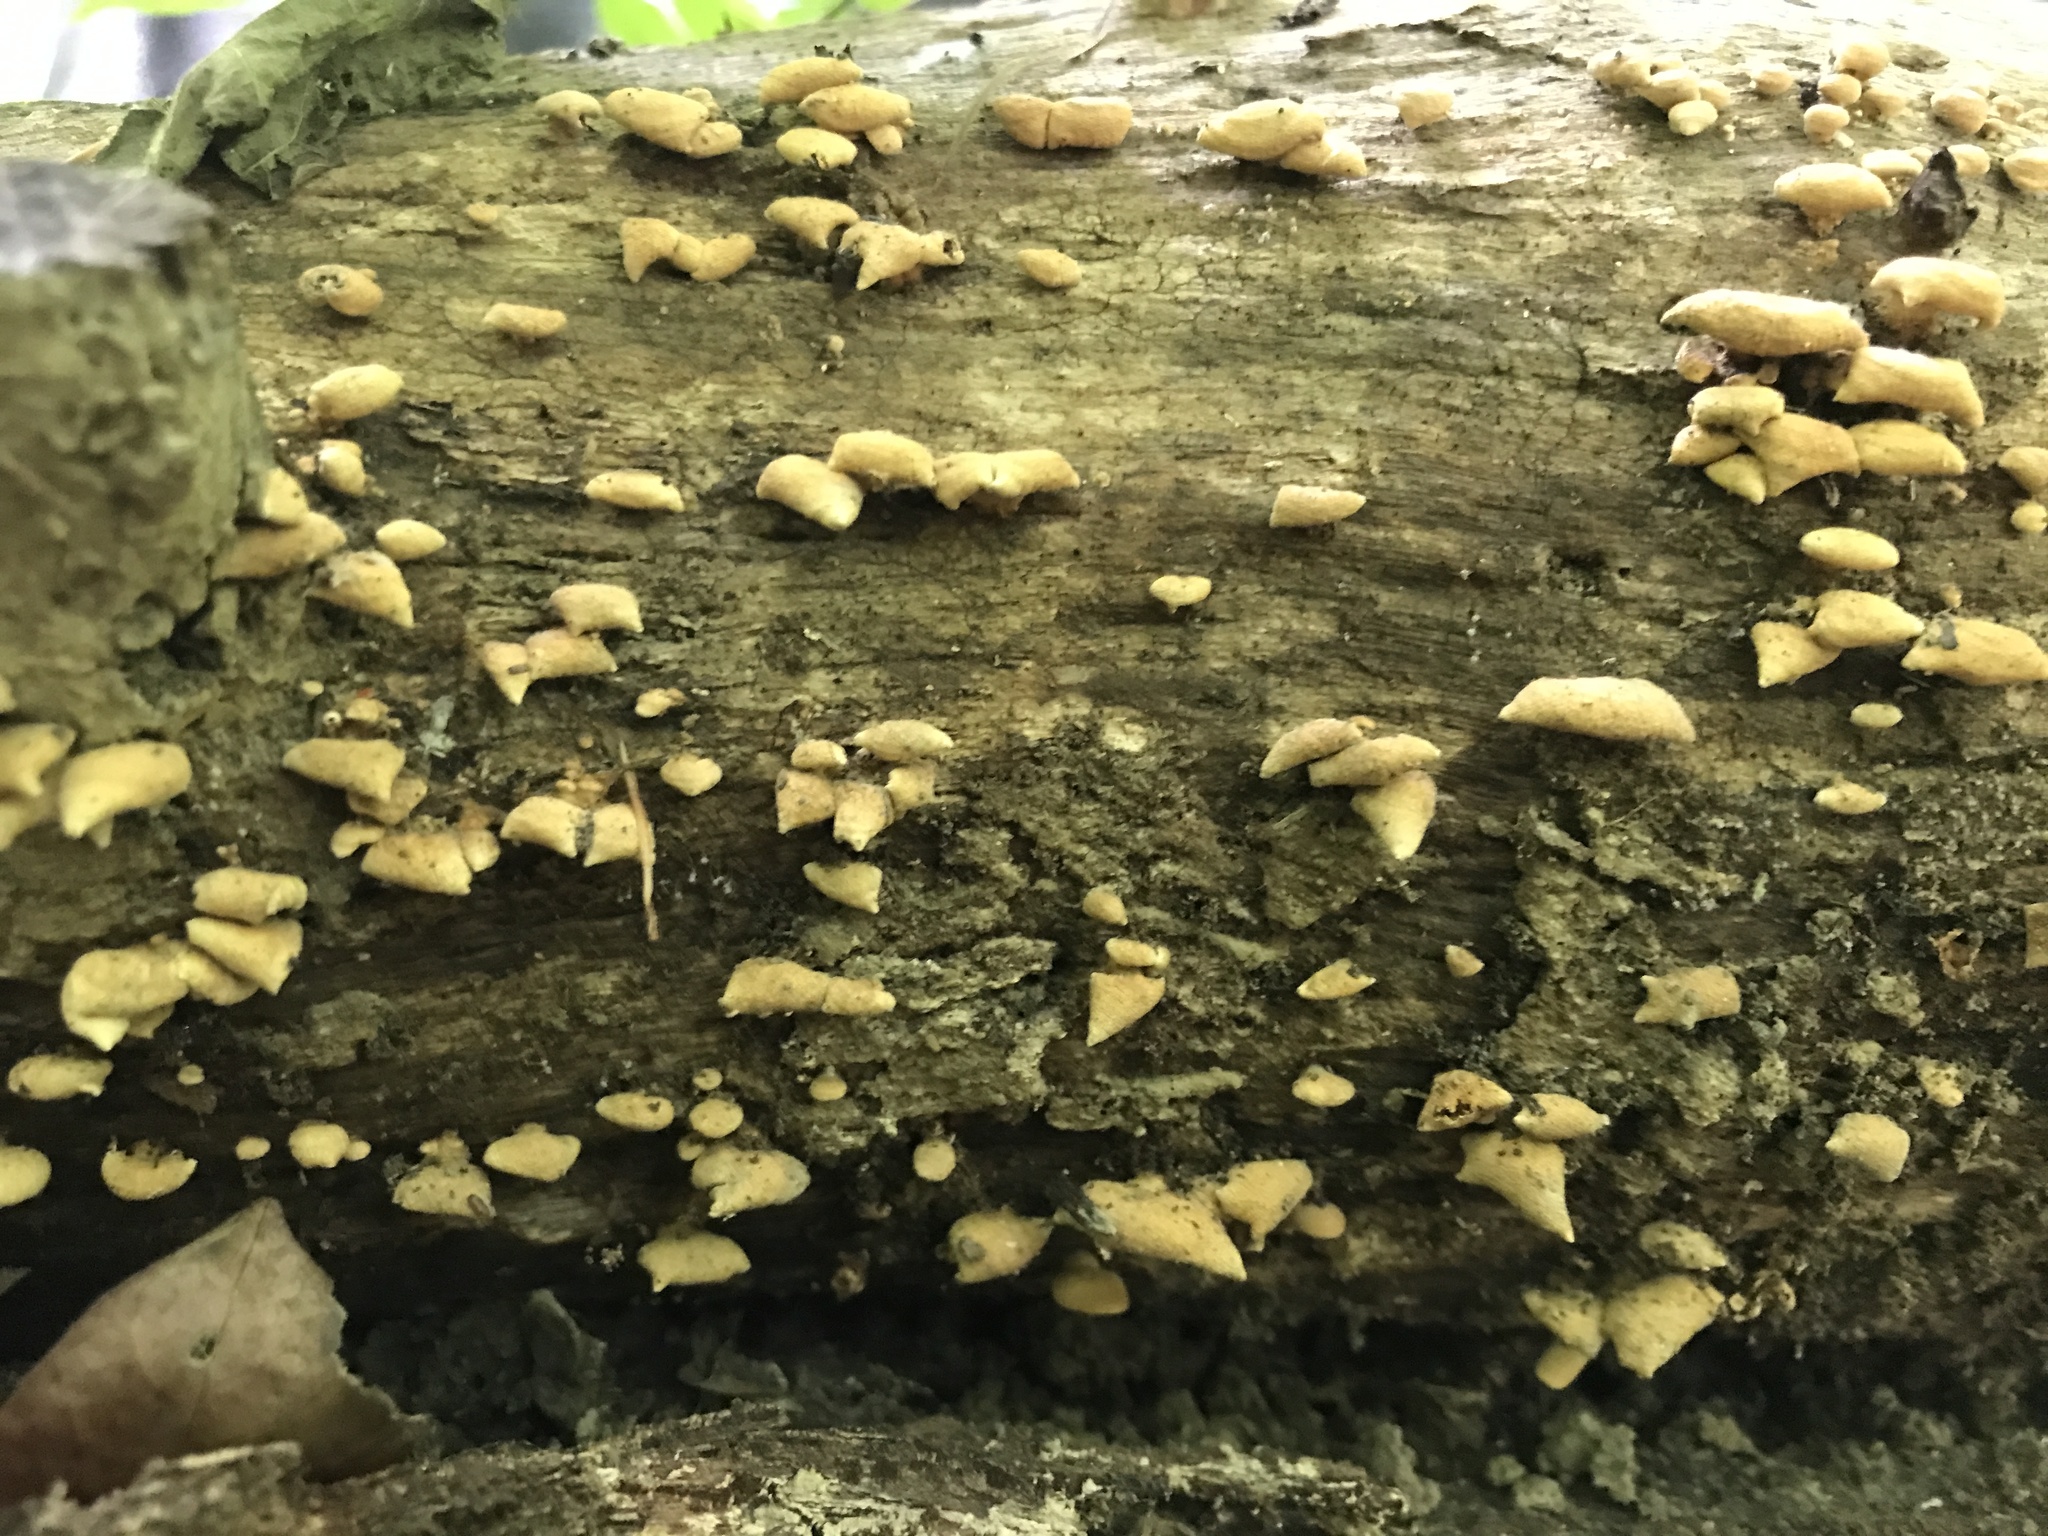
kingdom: Fungi
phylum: Basidiomycota
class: Agaricomycetes
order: Agaricales
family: Mycenaceae
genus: Panellus
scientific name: Panellus stipticus
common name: Bitter oysterling
